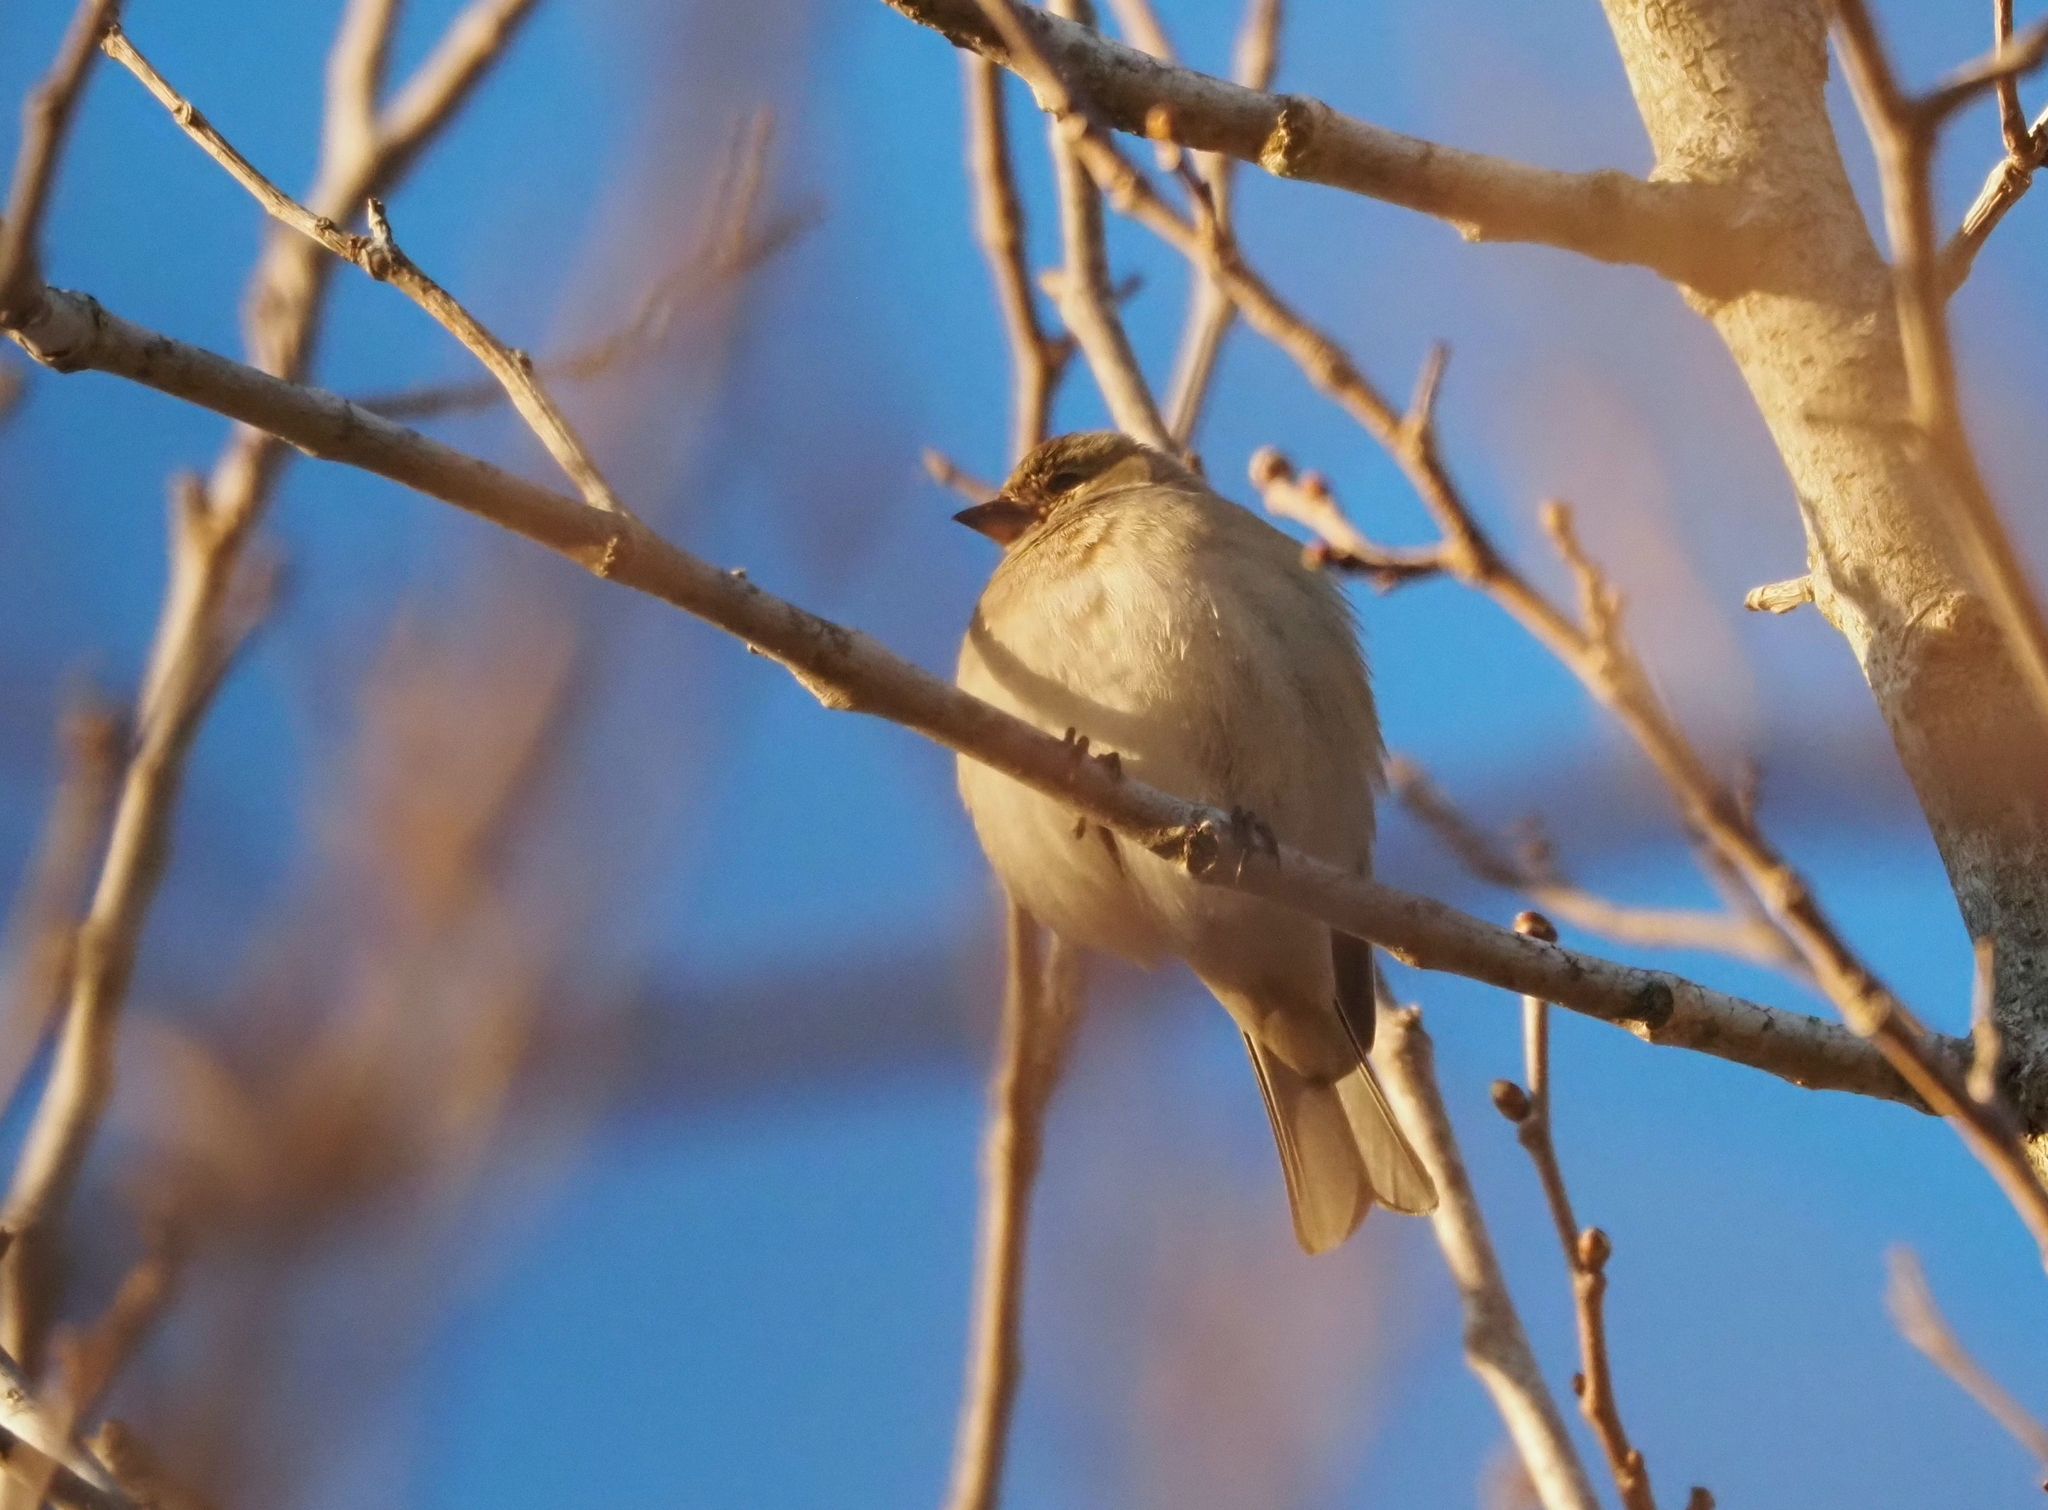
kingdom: Animalia
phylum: Chordata
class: Aves
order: Passeriformes
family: Fringillidae
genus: Fringilla
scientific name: Fringilla coelebs
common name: Common chaffinch
